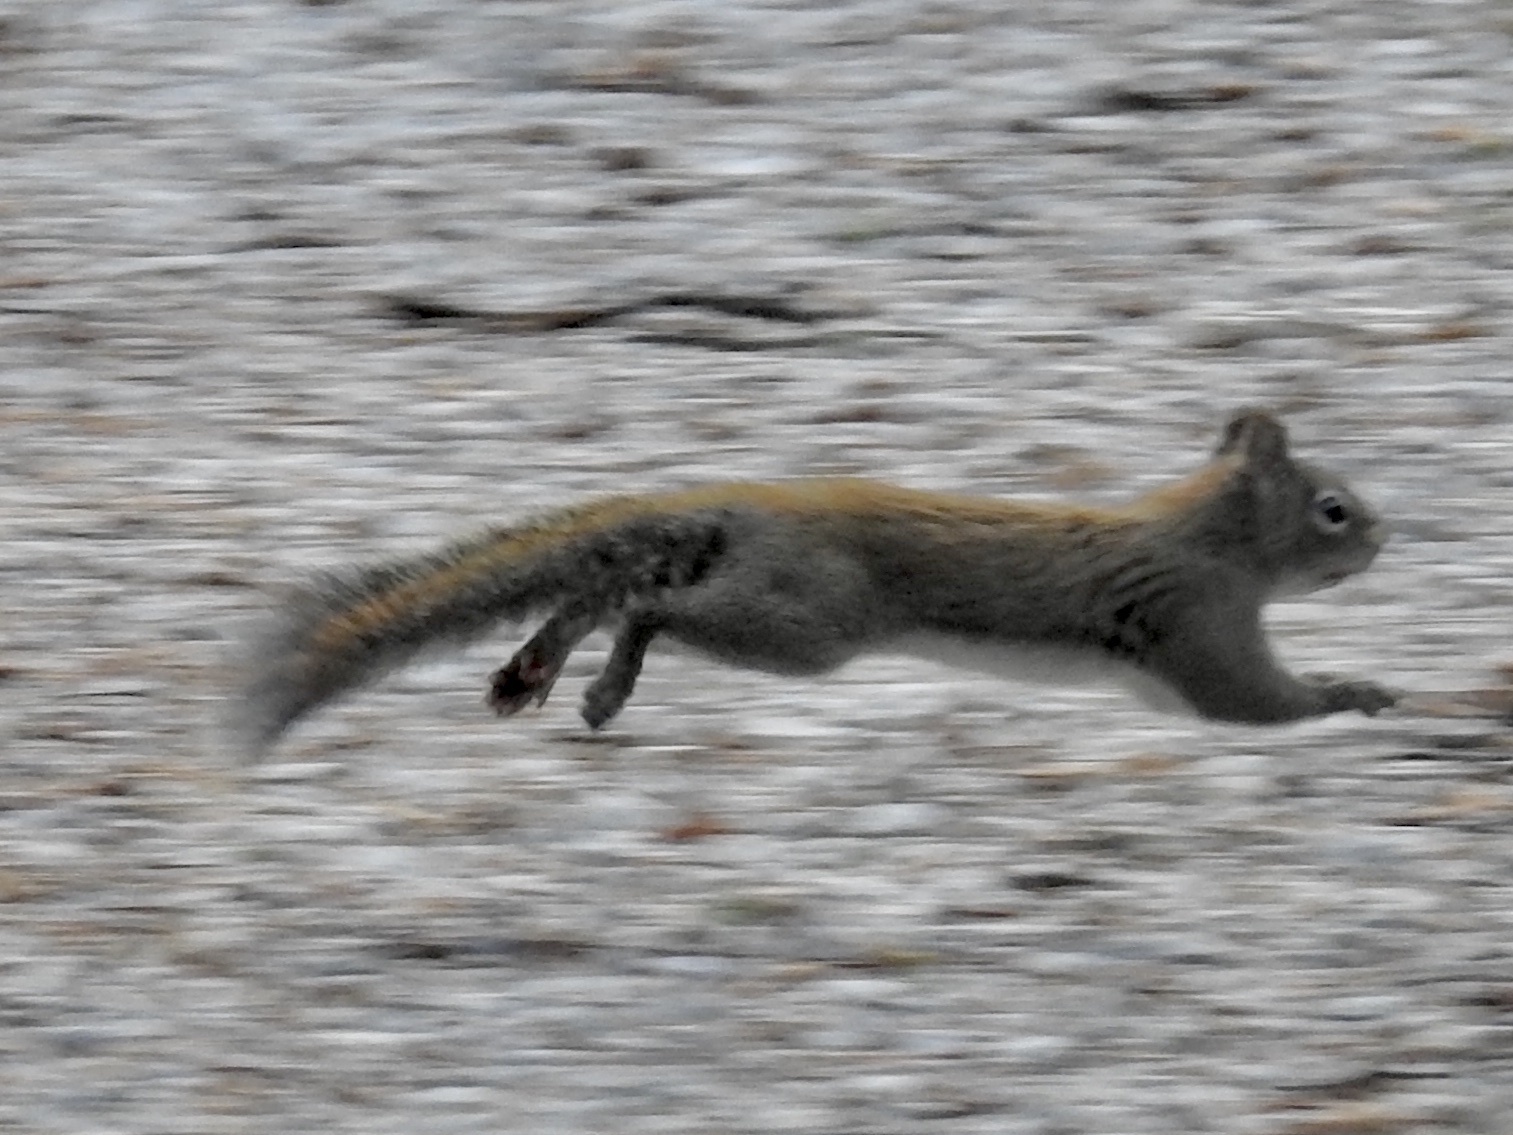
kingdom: Animalia
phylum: Chordata
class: Mammalia
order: Rodentia
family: Sciuridae
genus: Tamiasciurus
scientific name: Tamiasciurus hudsonicus
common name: Red squirrel
